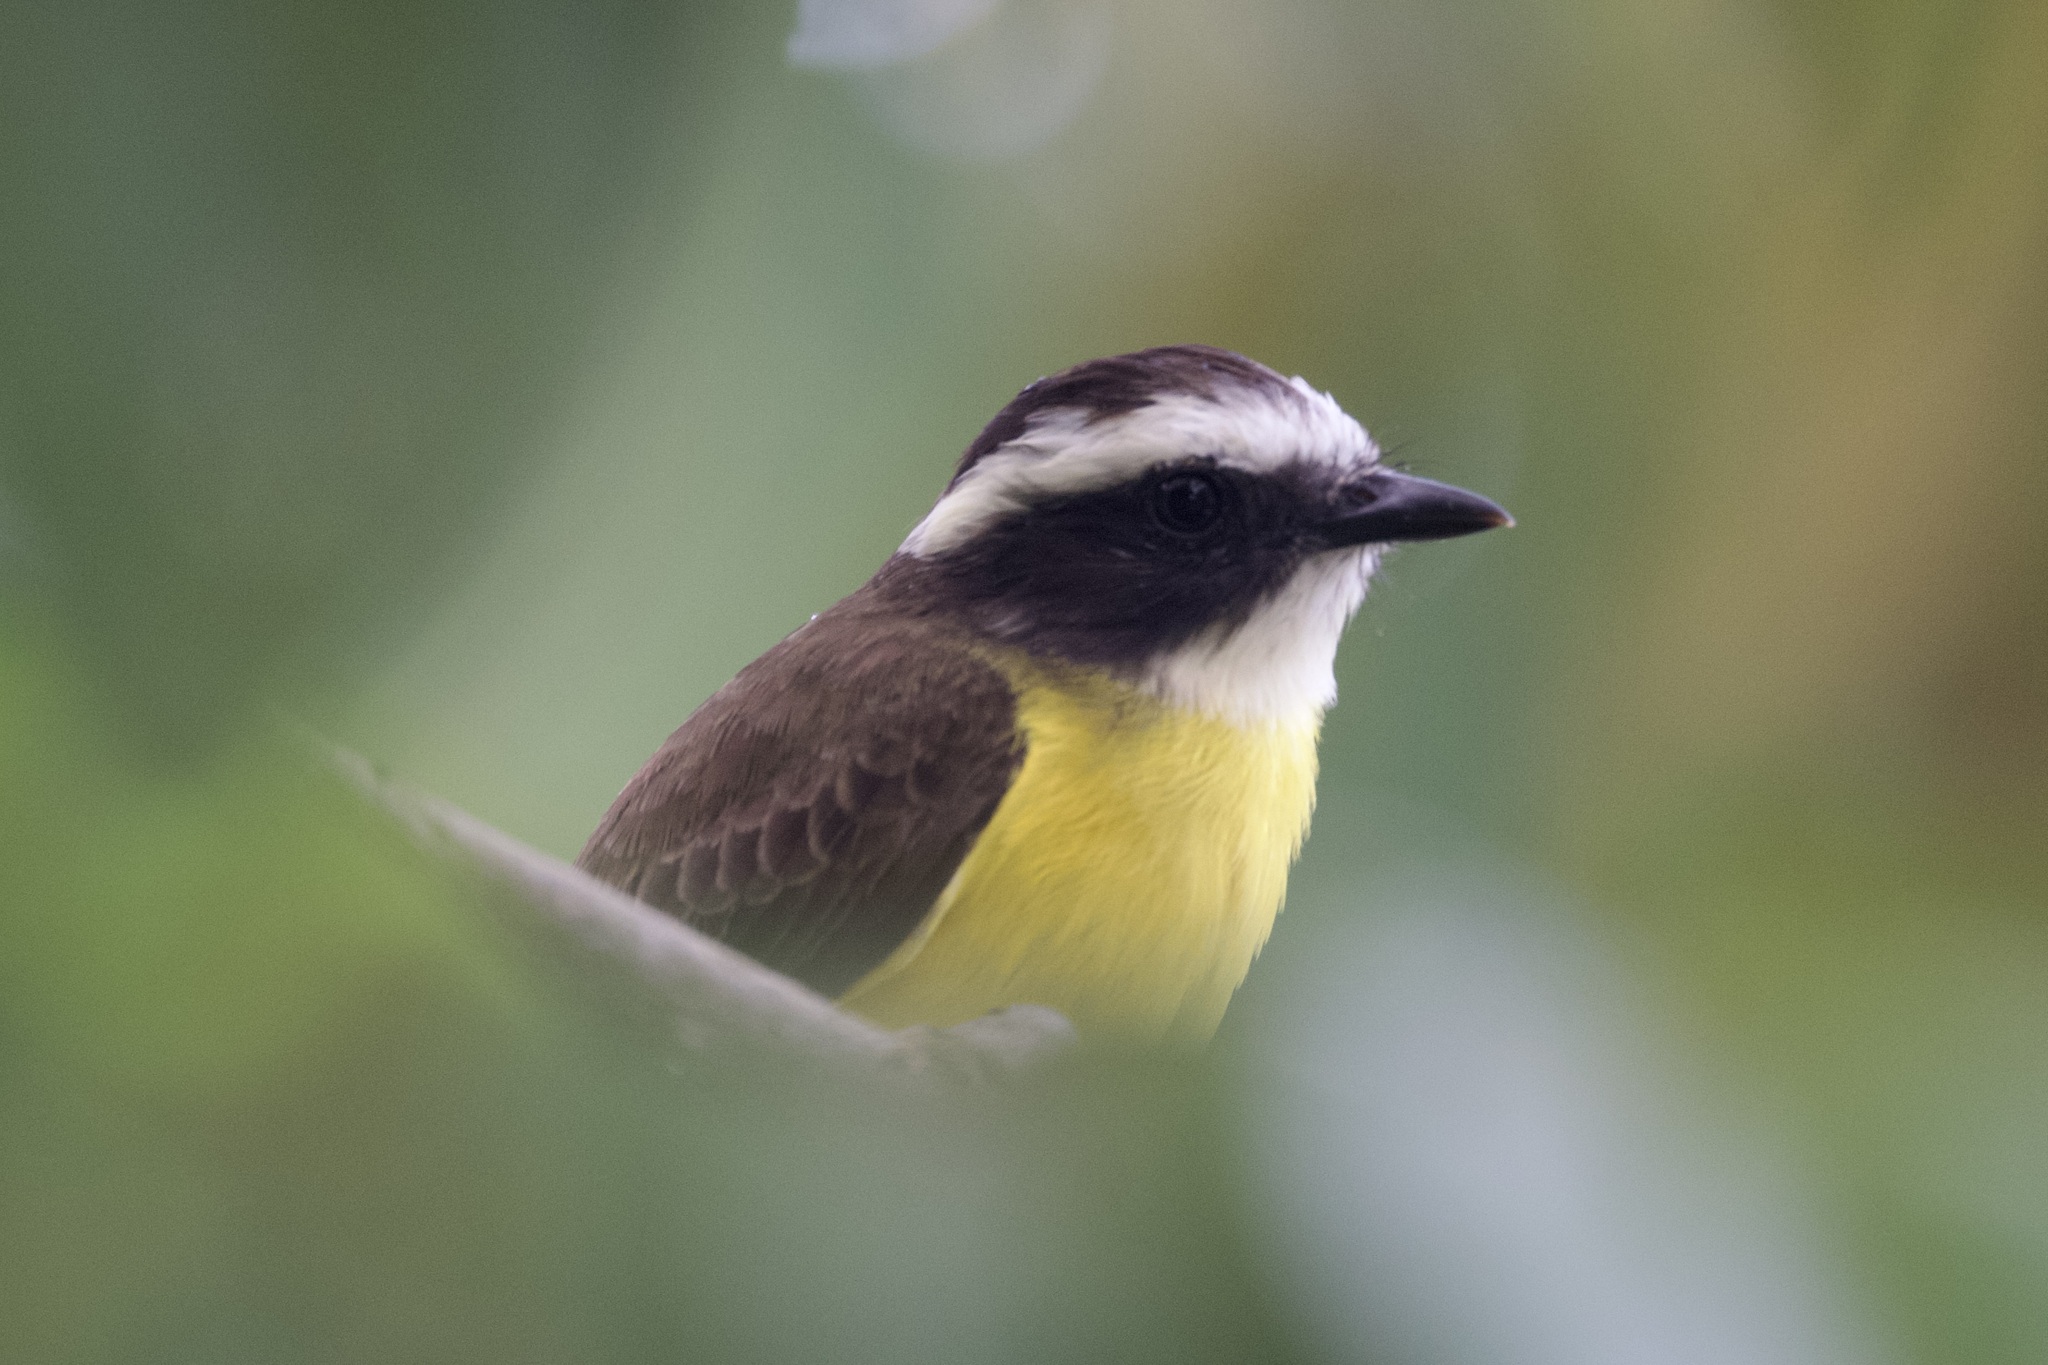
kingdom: Animalia
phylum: Chordata
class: Aves
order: Passeriformes
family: Tyrannidae
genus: Myiozetetes
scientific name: Myiozetetes cayanensis
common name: Rusty-margined flycatcher
